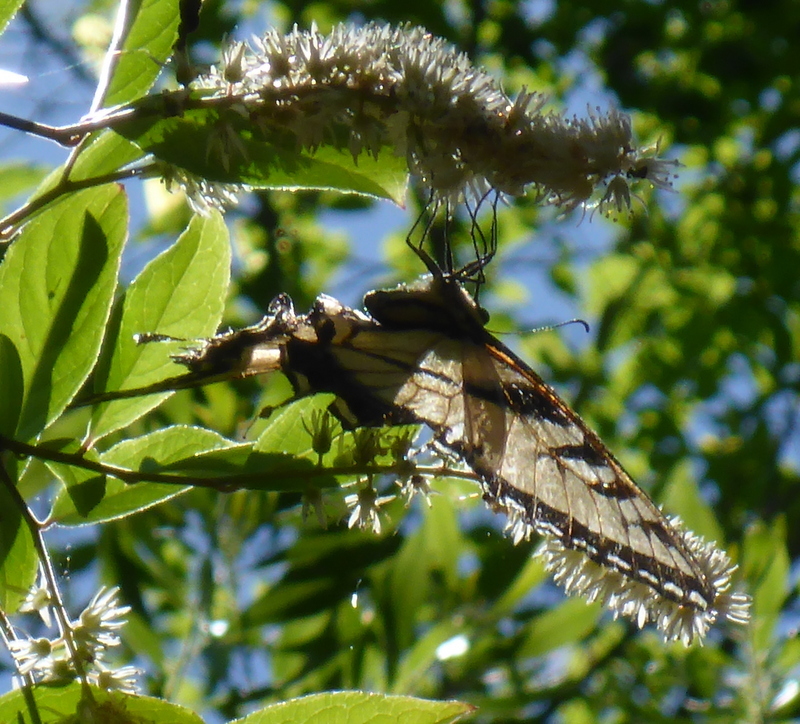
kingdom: Animalia
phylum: Arthropoda
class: Insecta
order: Lepidoptera
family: Papilionidae
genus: Papilio
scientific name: Papilio glaucus
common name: Tiger swallowtail
